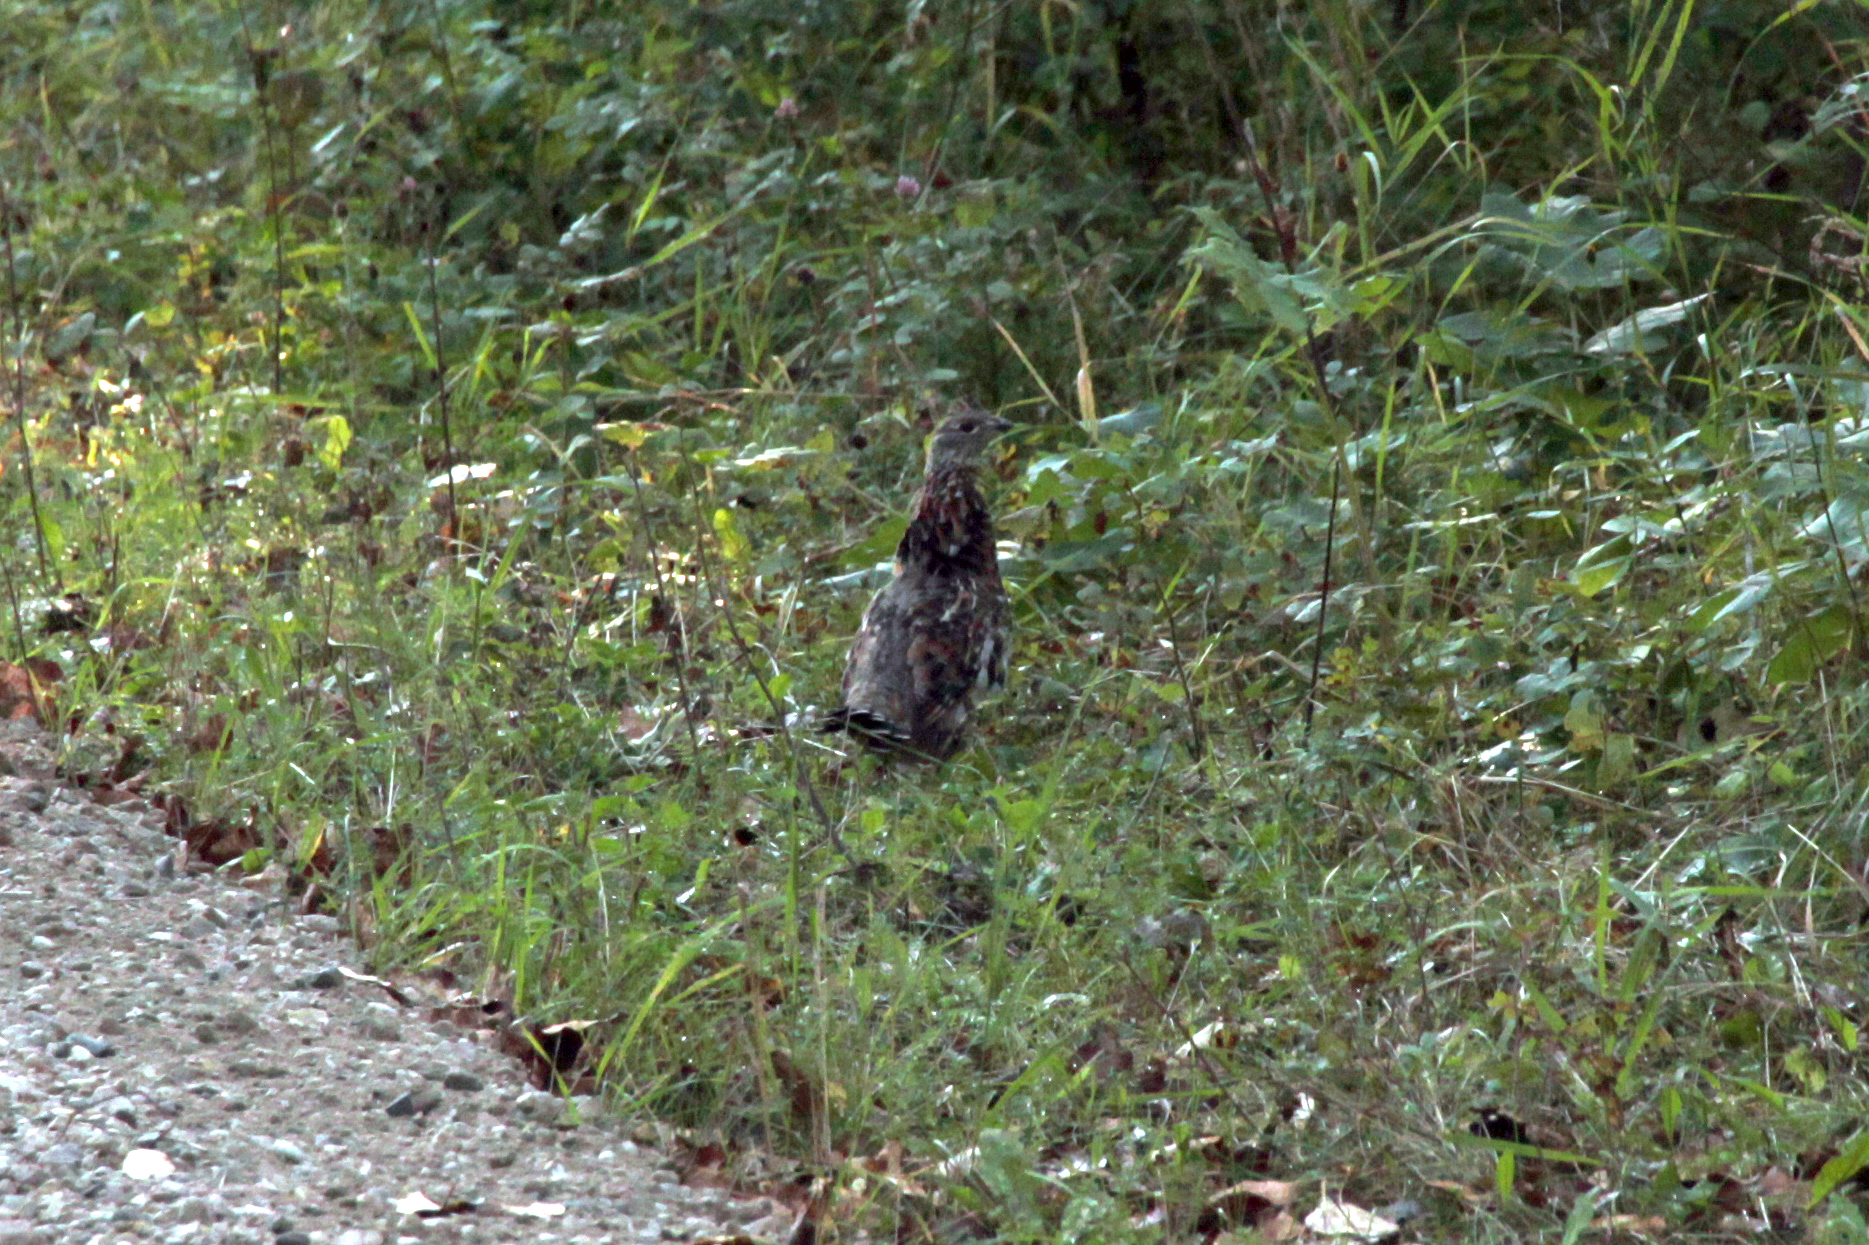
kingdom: Animalia
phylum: Chordata
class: Aves
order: Galliformes
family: Phasianidae
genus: Bonasa
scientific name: Bonasa umbellus
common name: Ruffed grouse
